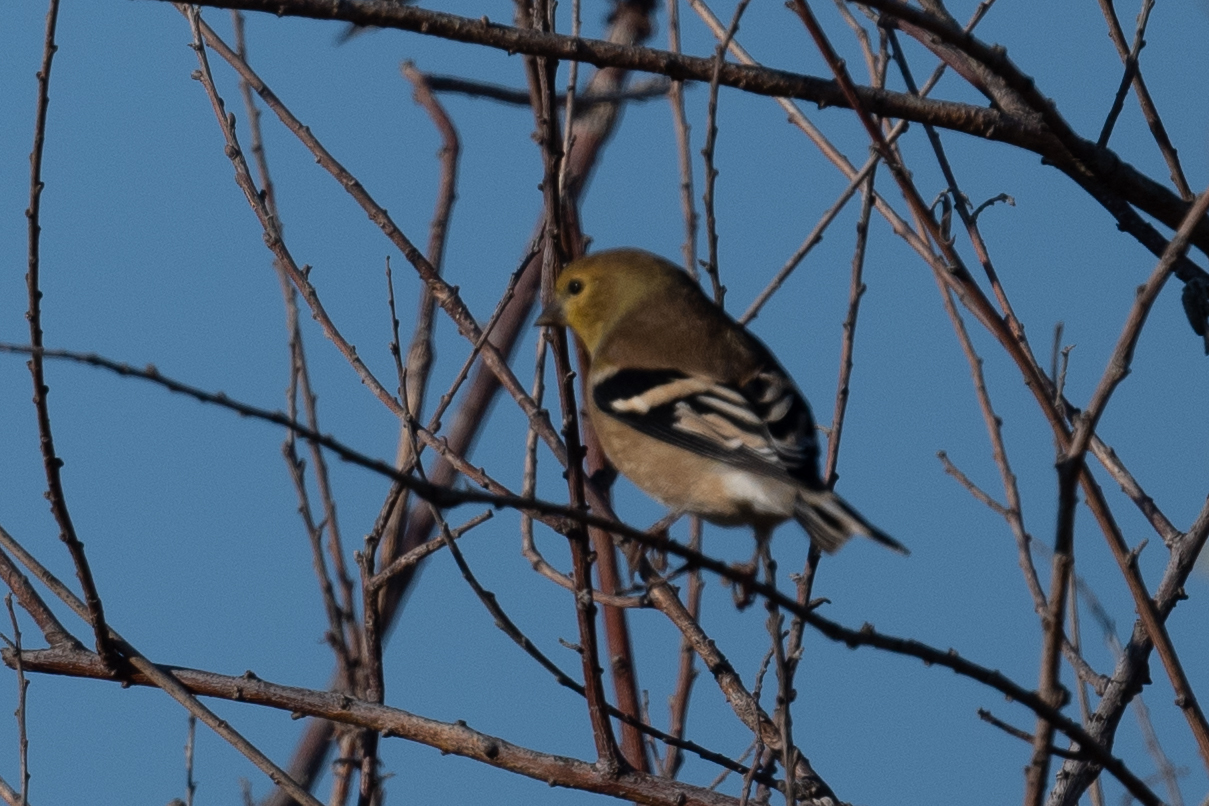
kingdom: Animalia
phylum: Chordata
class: Aves
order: Passeriformes
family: Fringillidae
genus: Spinus
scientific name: Spinus tristis
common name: American goldfinch
